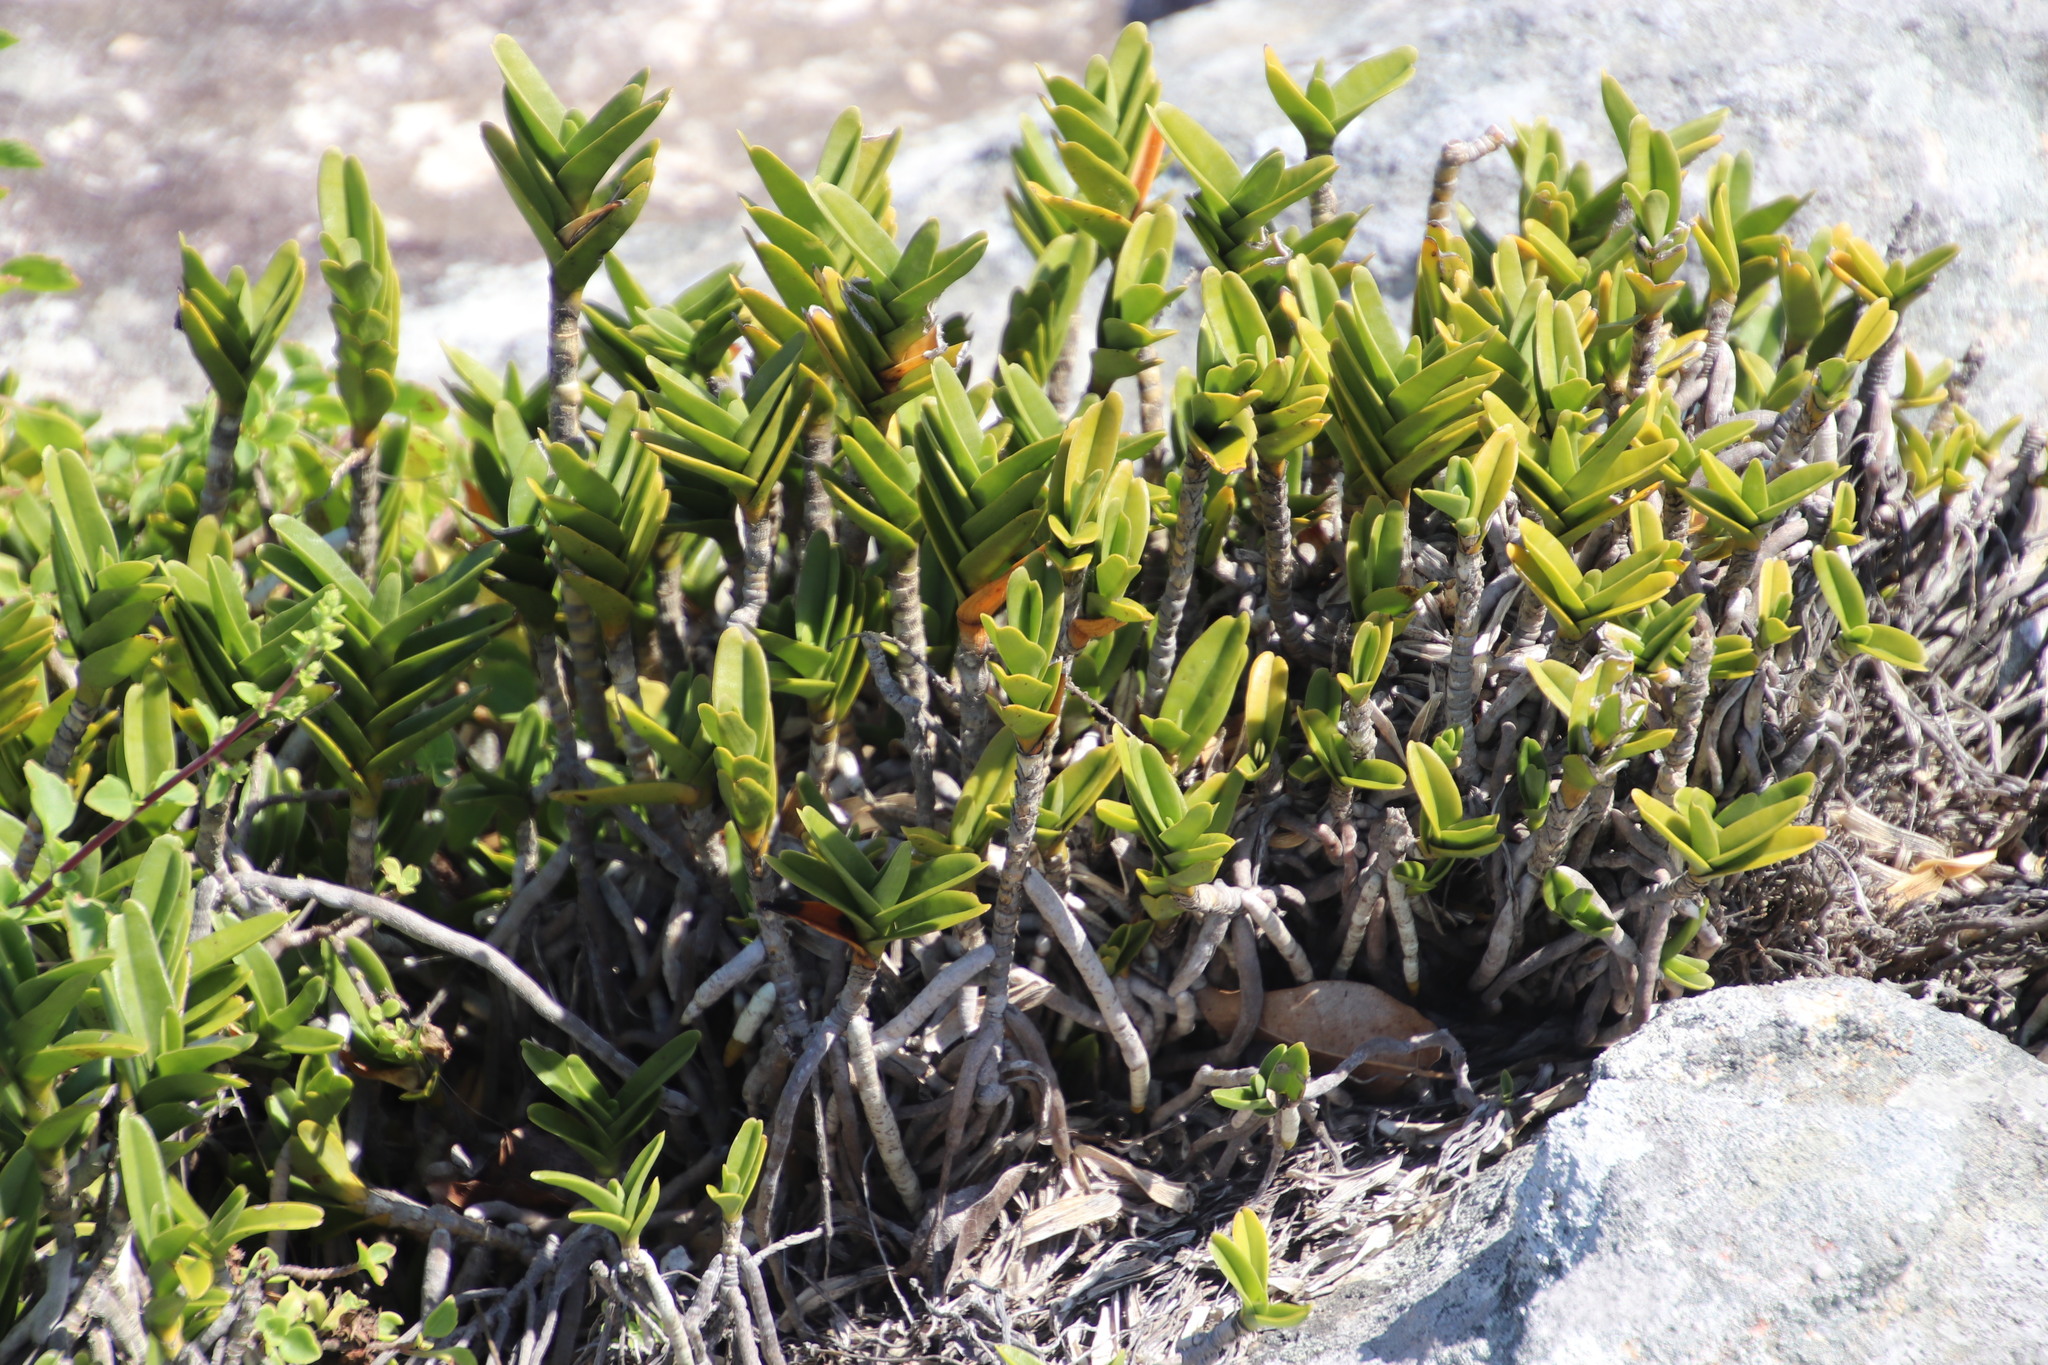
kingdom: Plantae
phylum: Tracheophyta
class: Liliopsida
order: Asparagales
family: Orchidaceae
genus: Tridactyle
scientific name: Tridactyle bicaudata
